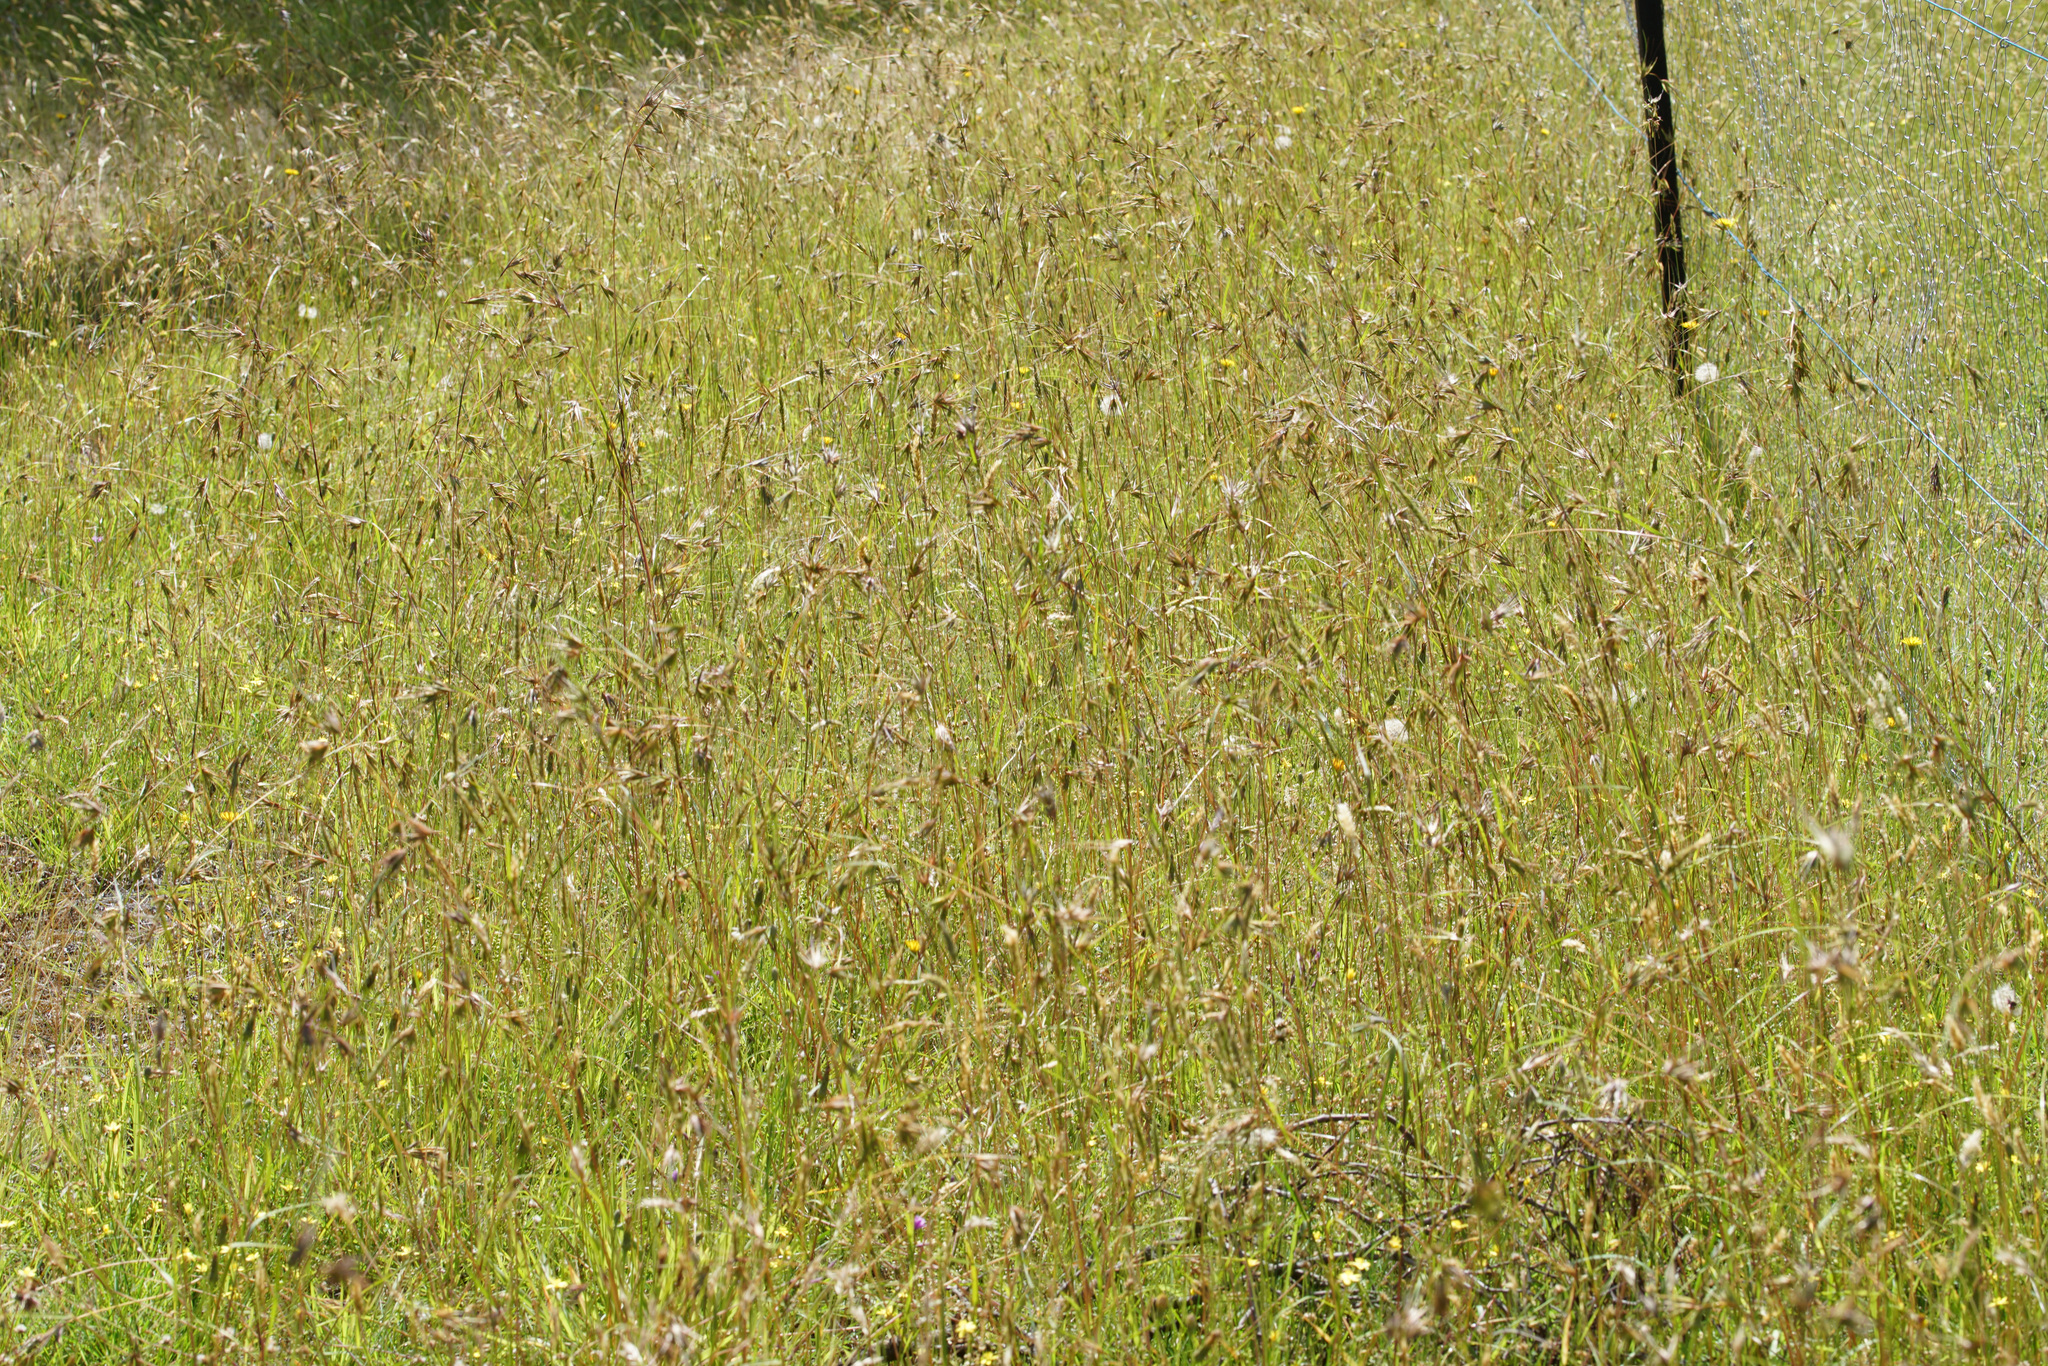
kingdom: Plantae
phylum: Tracheophyta
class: Liliopsida
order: Poales
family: Poaceae
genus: Themeda
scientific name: Themeda triandra
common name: Kangaroo grass
